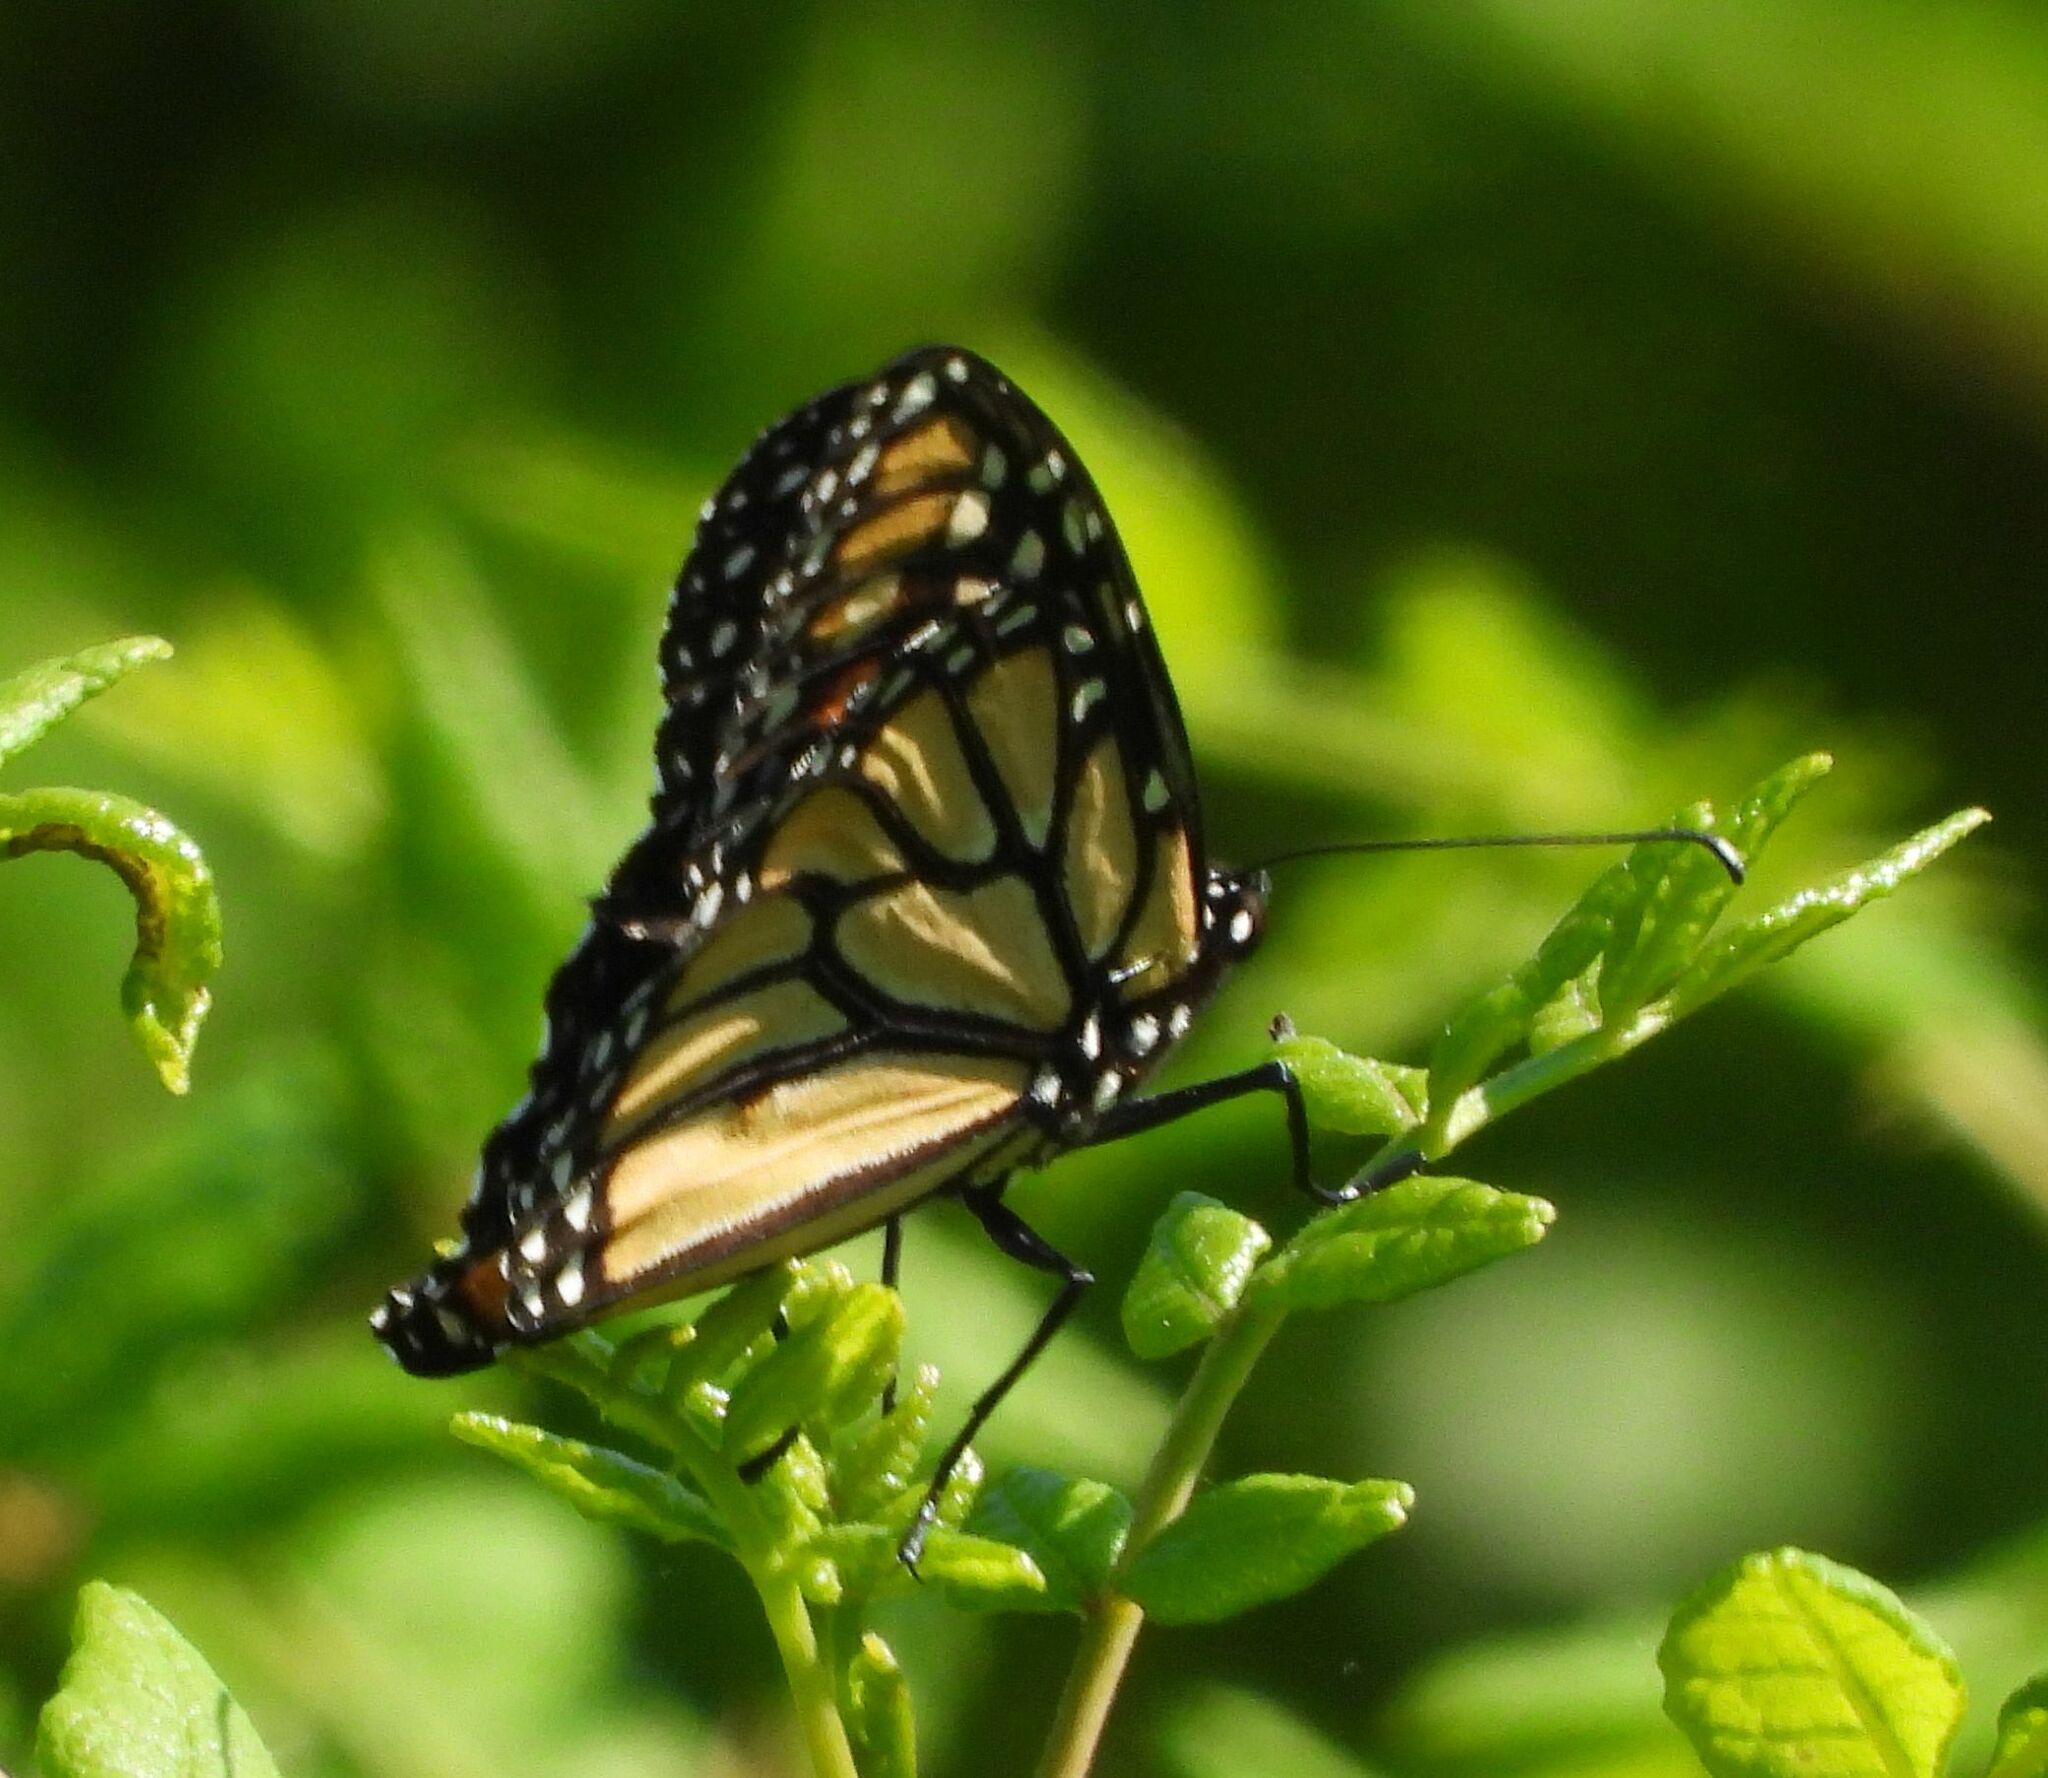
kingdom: Animalia
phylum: Arthropoda
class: Insecta
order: Lepidoptera
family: Nymphalidae
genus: Danaus
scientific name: Danaus plexippus
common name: Monarch
